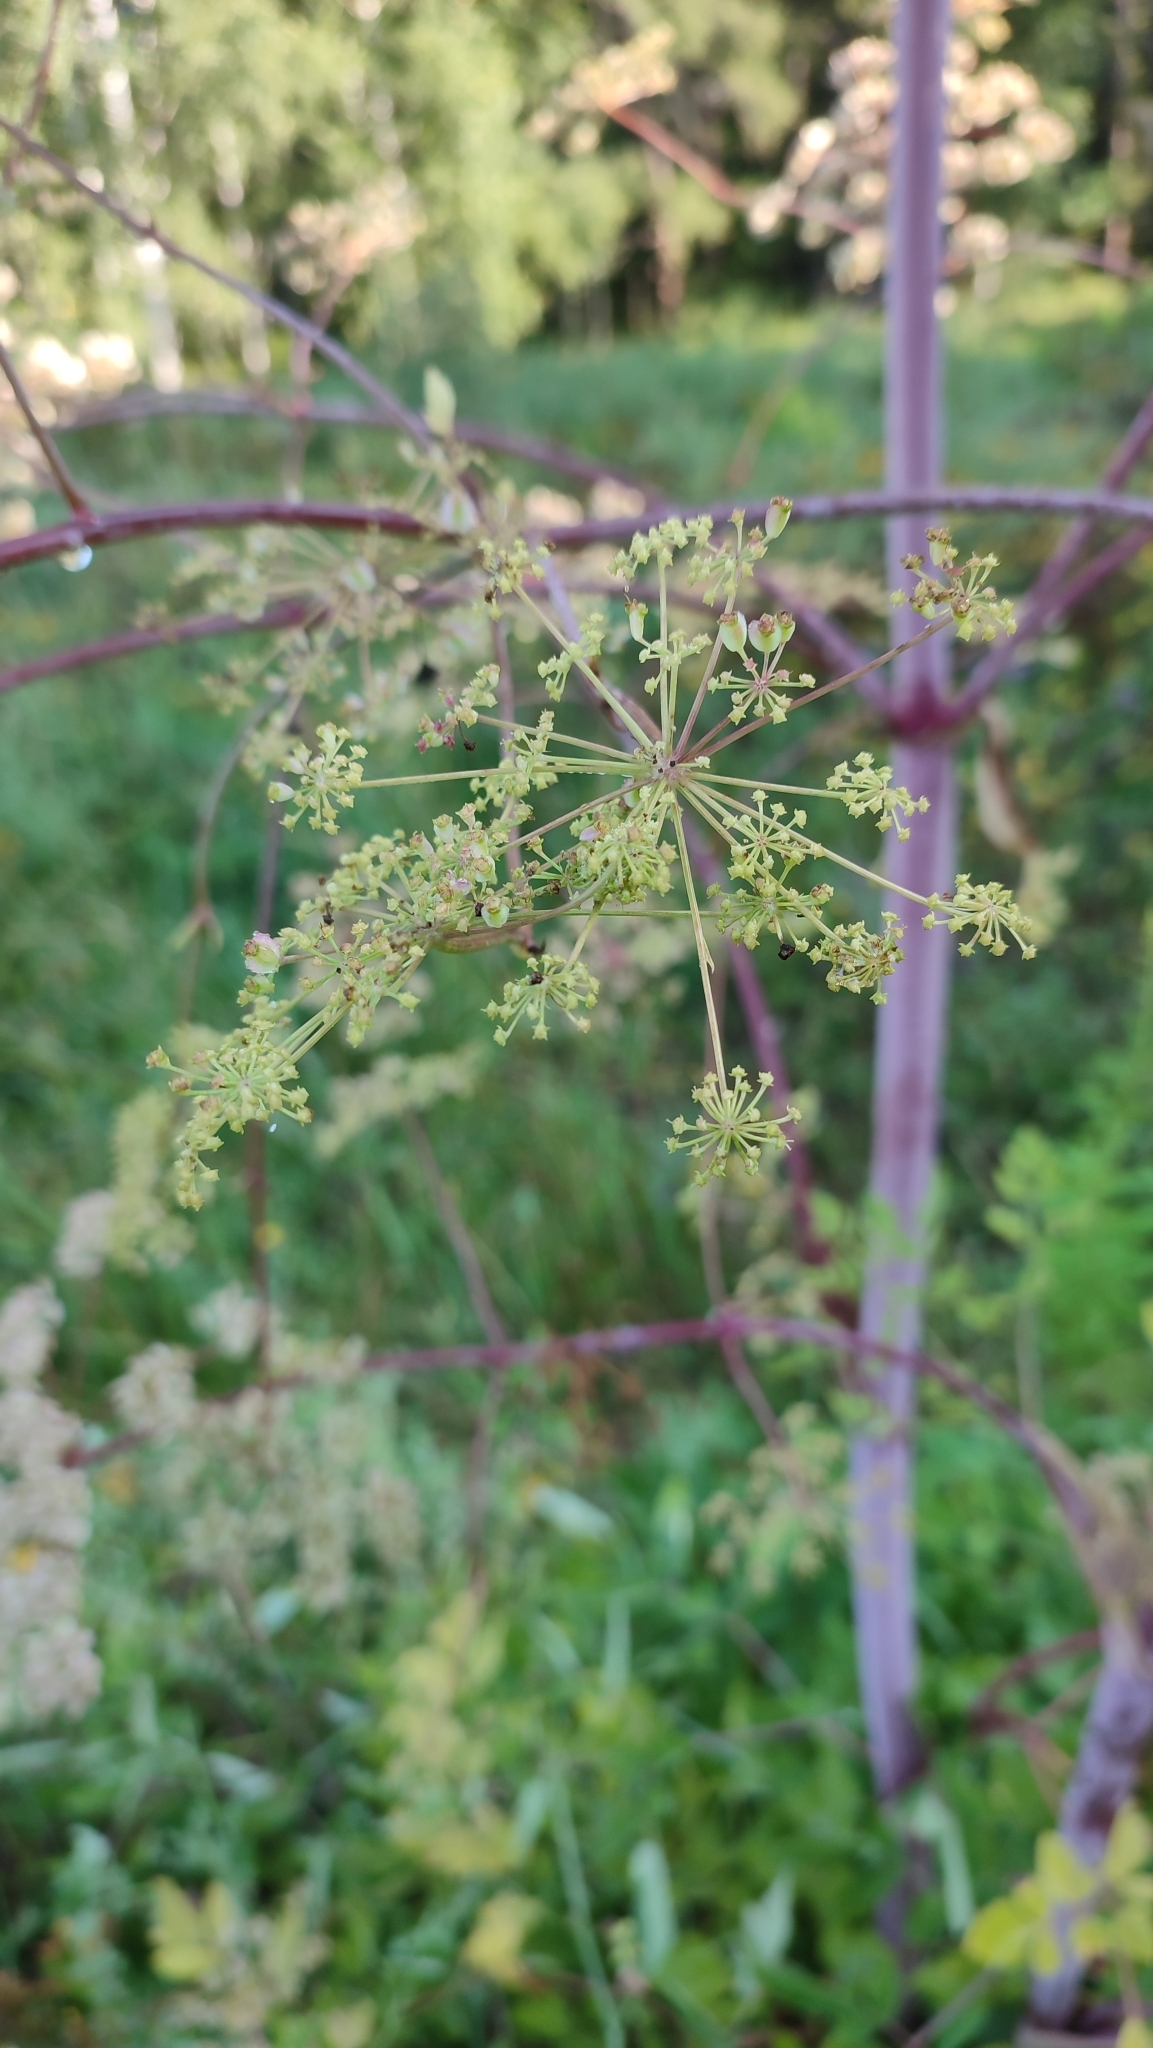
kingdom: Plantae
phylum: Tracheophyta
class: Magnoliopsida
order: Apiales
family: Apiaceae
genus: Xanthogalum
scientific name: Xanthogalum purpurascens
